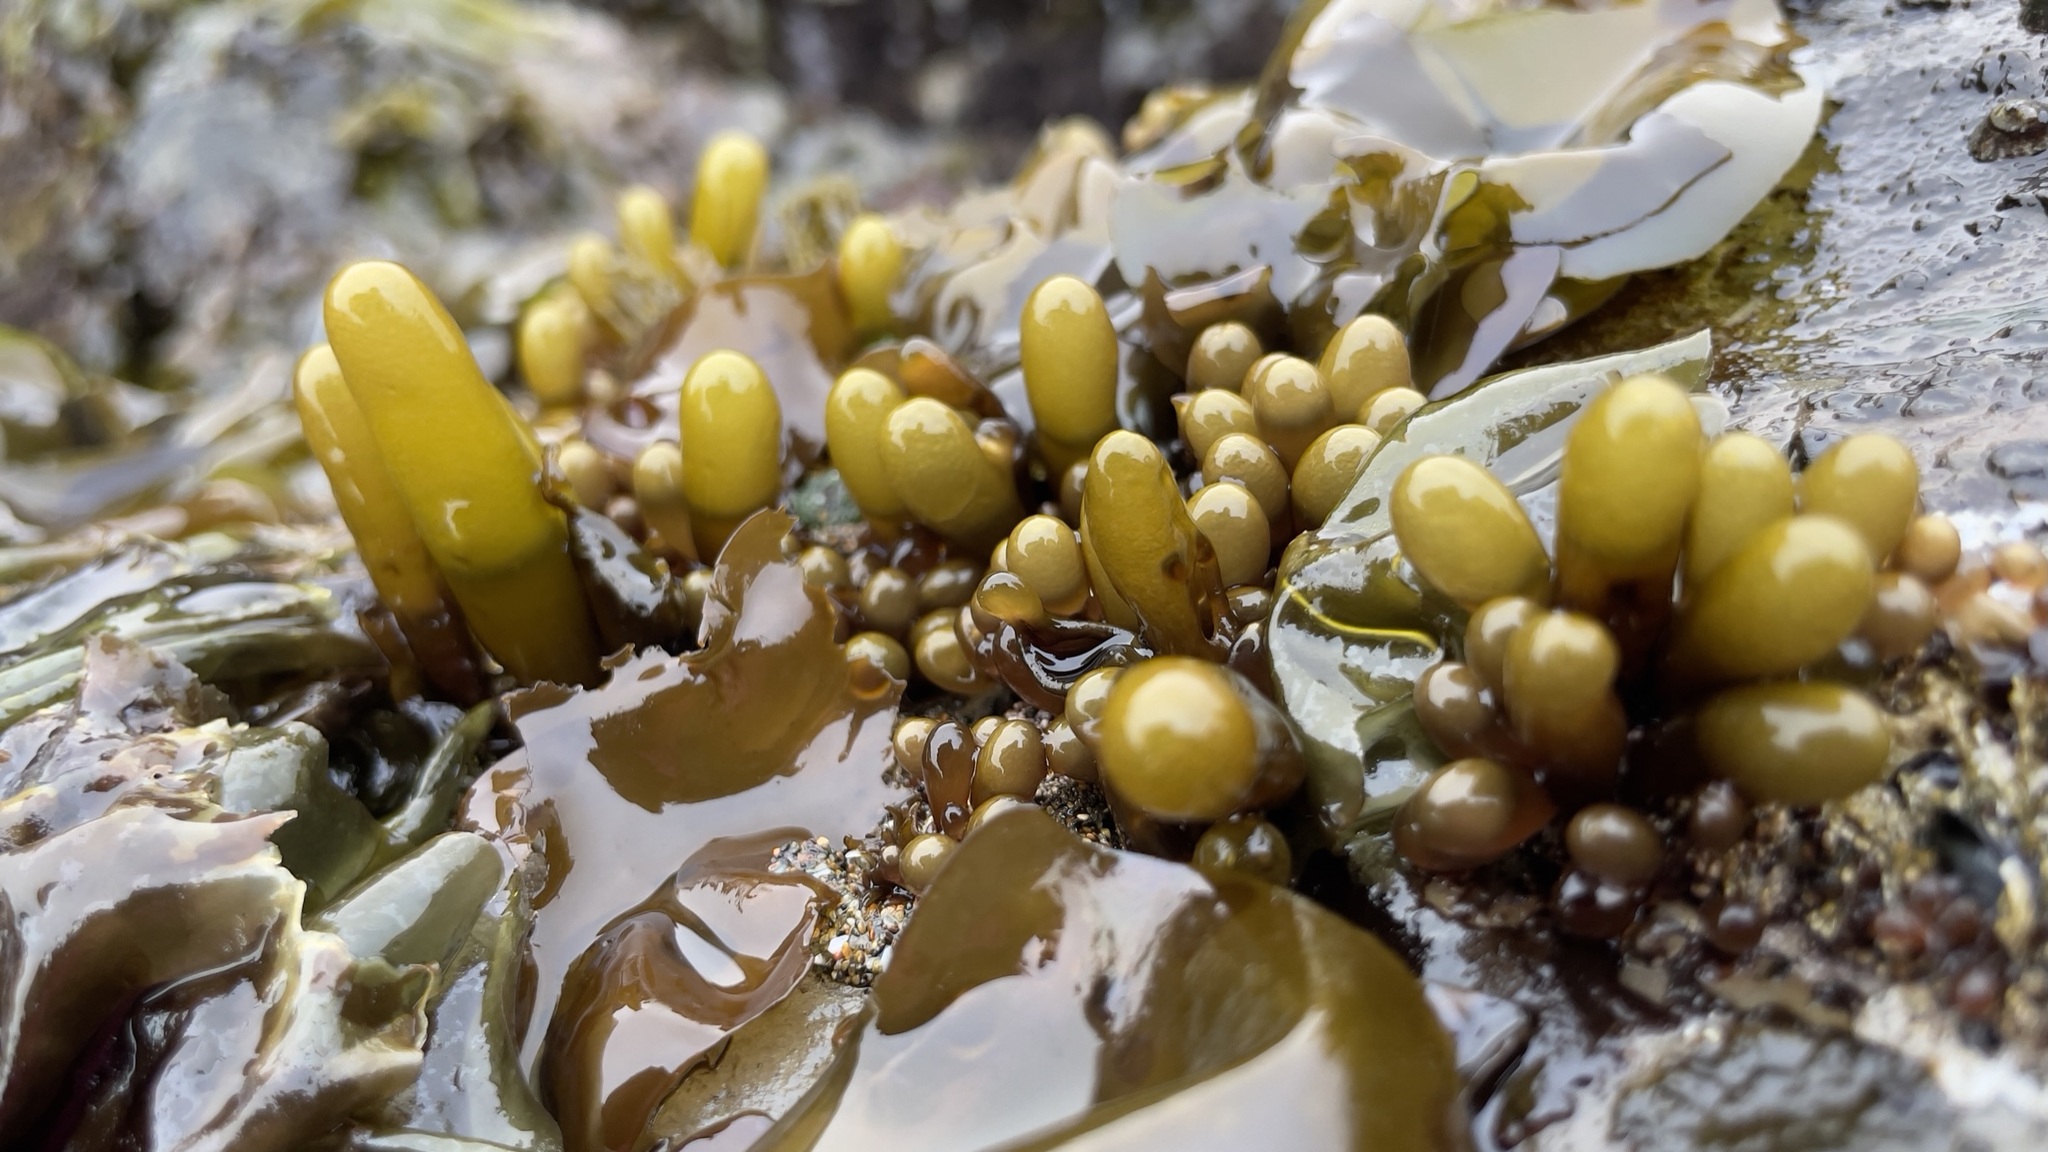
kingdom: Plantae
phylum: Rhodophyta
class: Florideophyceae
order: Palmariales
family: Palmariaceae
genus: Halosaccion
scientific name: Halosaccion glandiforme
